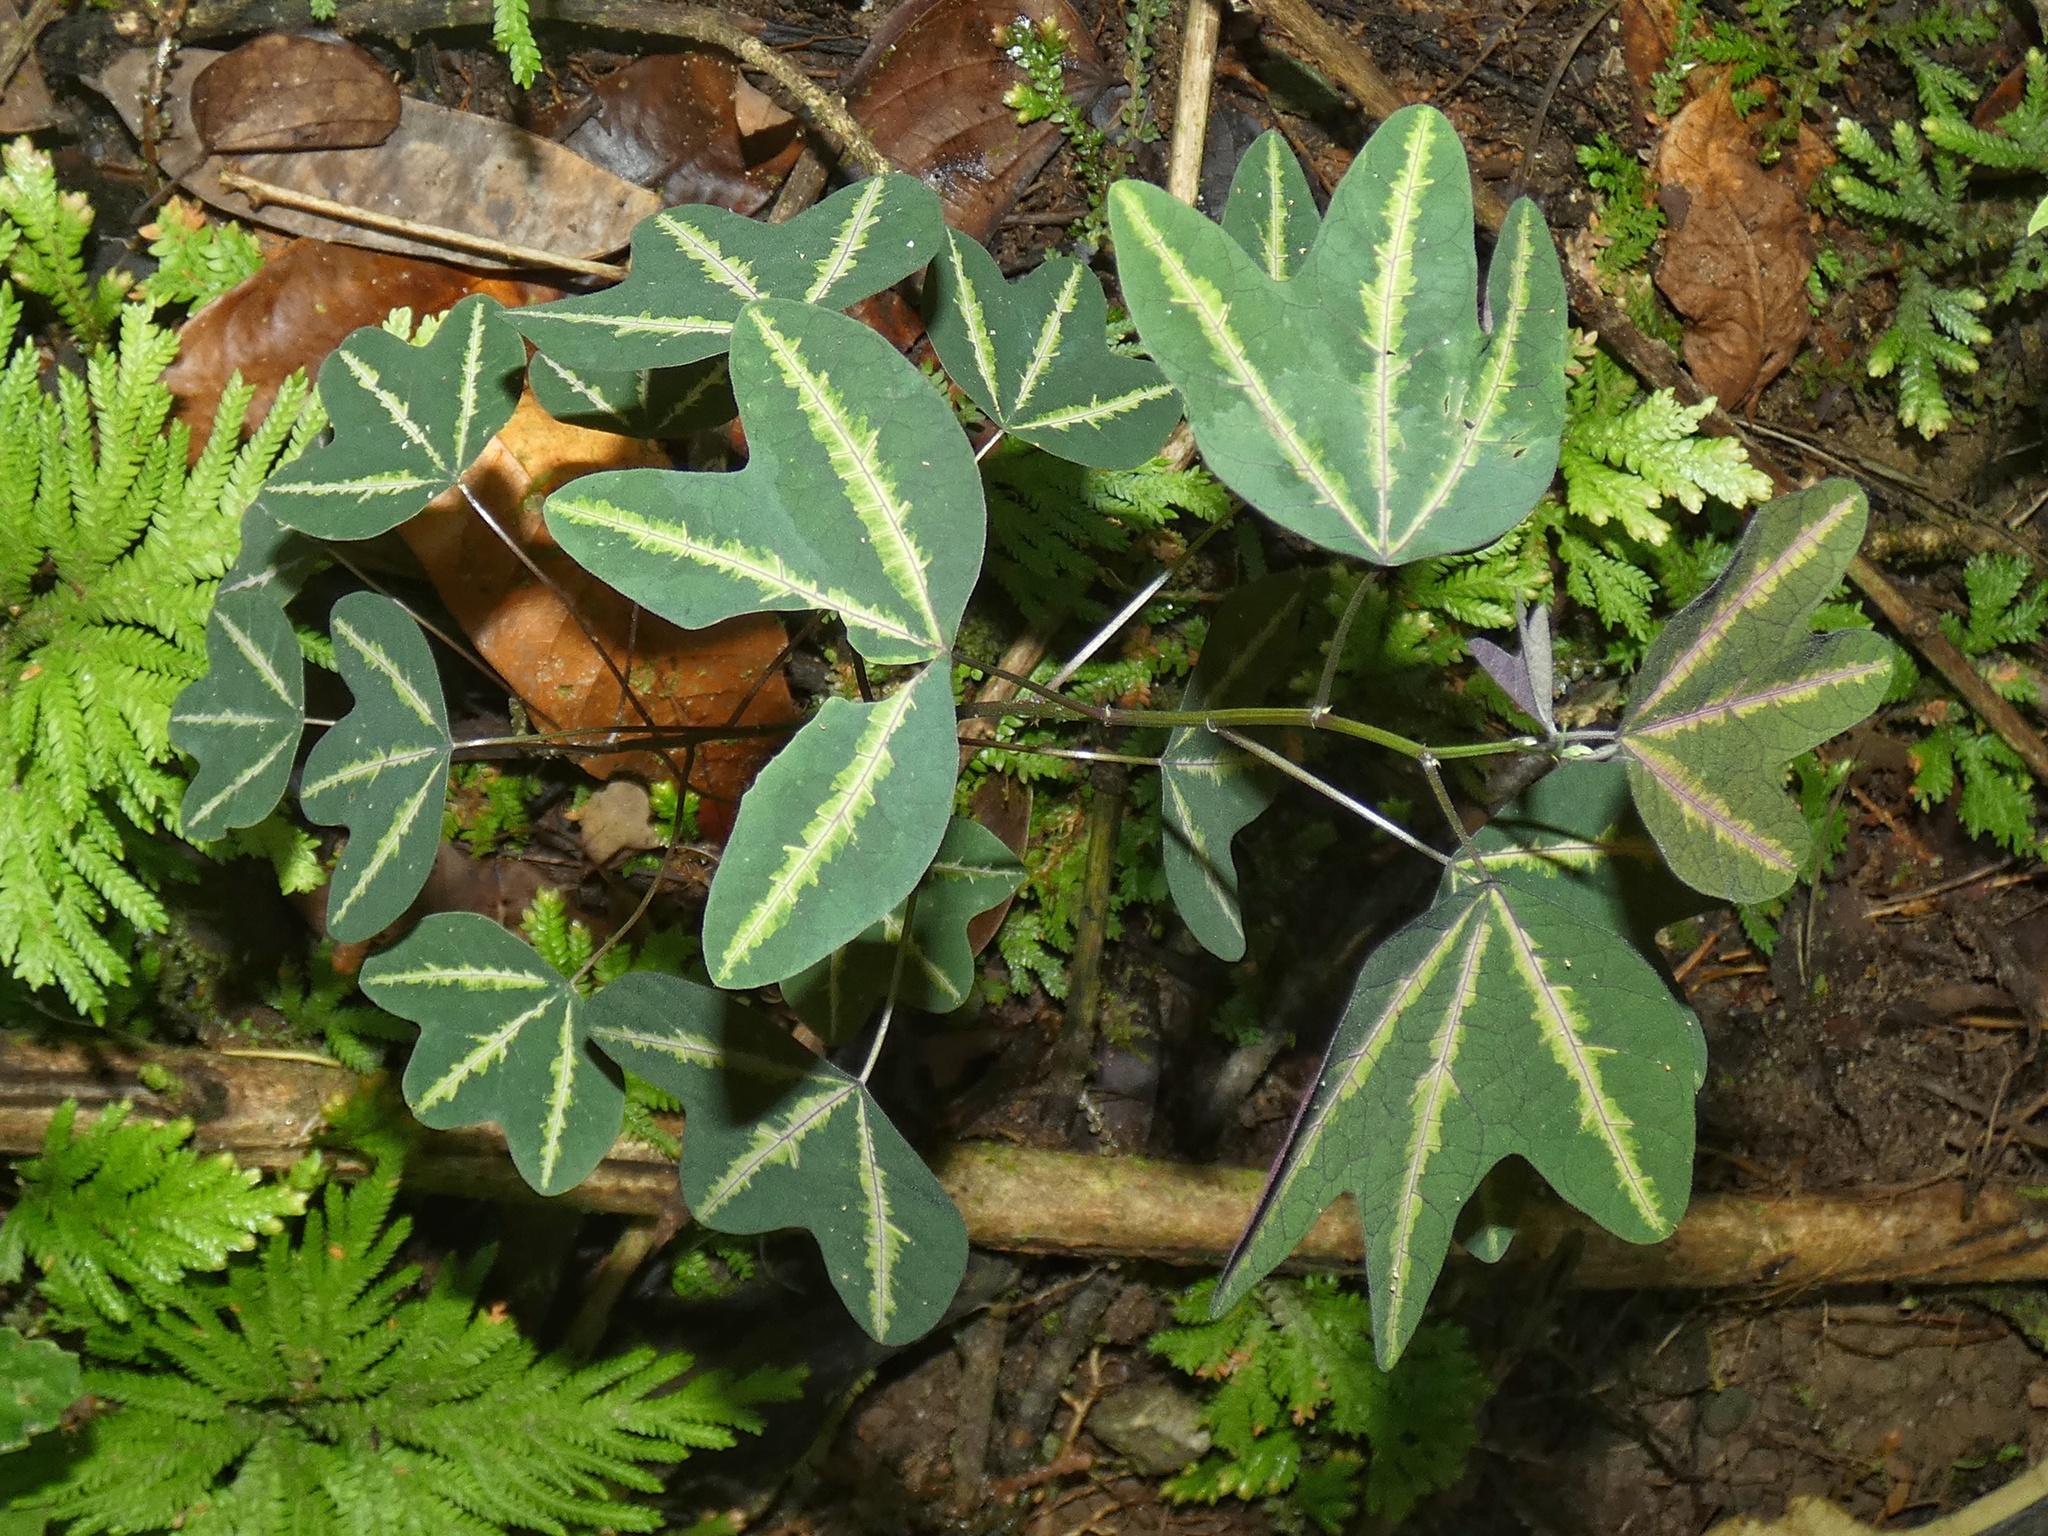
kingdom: Plantae
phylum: Tracheophyta
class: Magnoliopsida
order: Malpighiales
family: Passifloraceae
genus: Passiflora
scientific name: Passiflora panamensis
